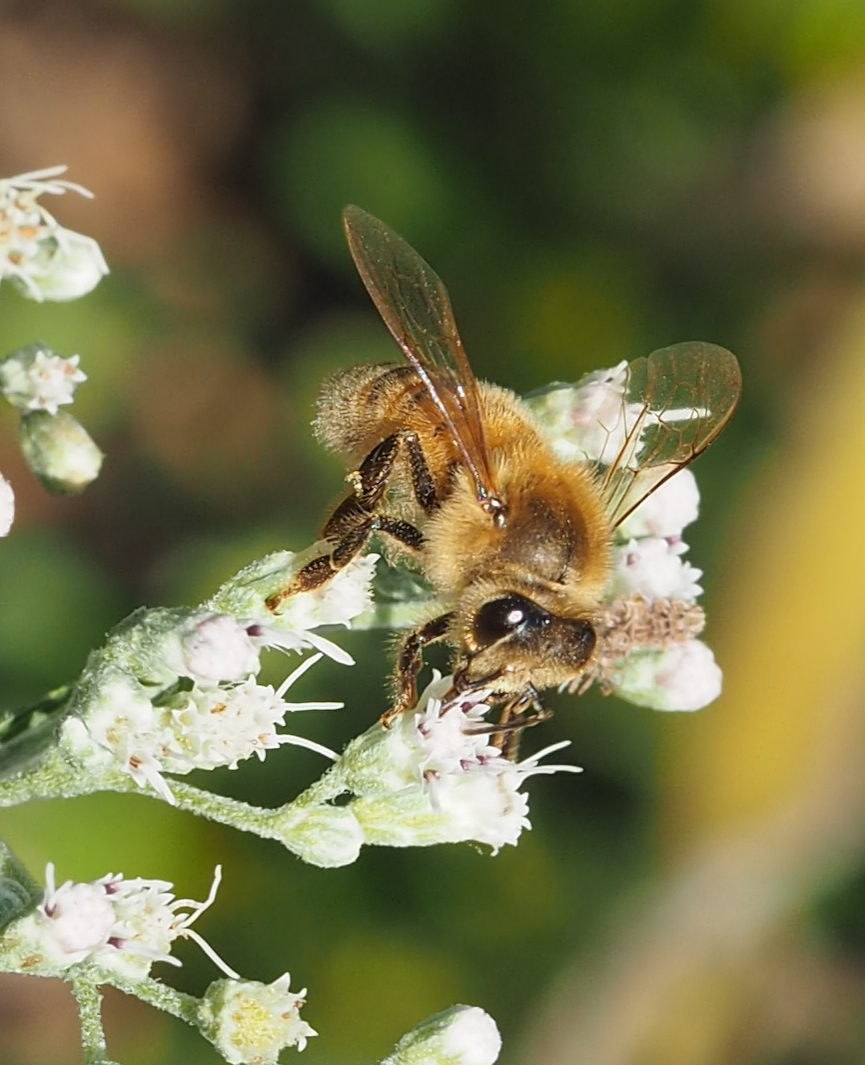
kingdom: Animalia
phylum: Arthropoda
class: Insecta
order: Hymenoptera
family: Apidae
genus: Apis
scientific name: Apis mellifera
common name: Honey bee
